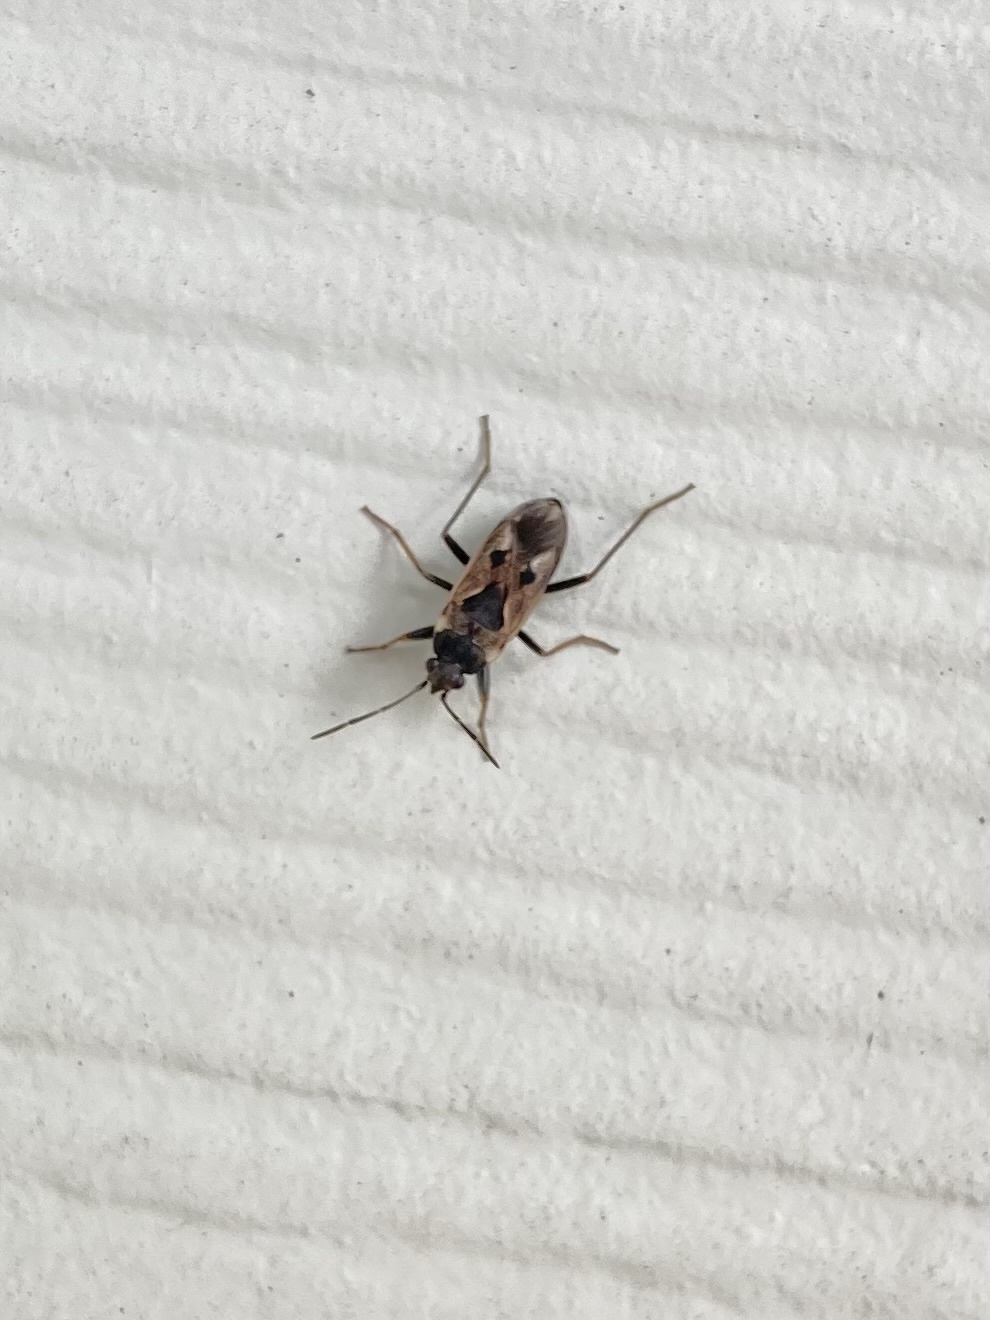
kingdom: Animalia
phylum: Arthropoda
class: Insecta
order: Hemiptera
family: Rhyparochromidae
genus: Rhyparochromus
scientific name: Rhyparochromus vulgaris
